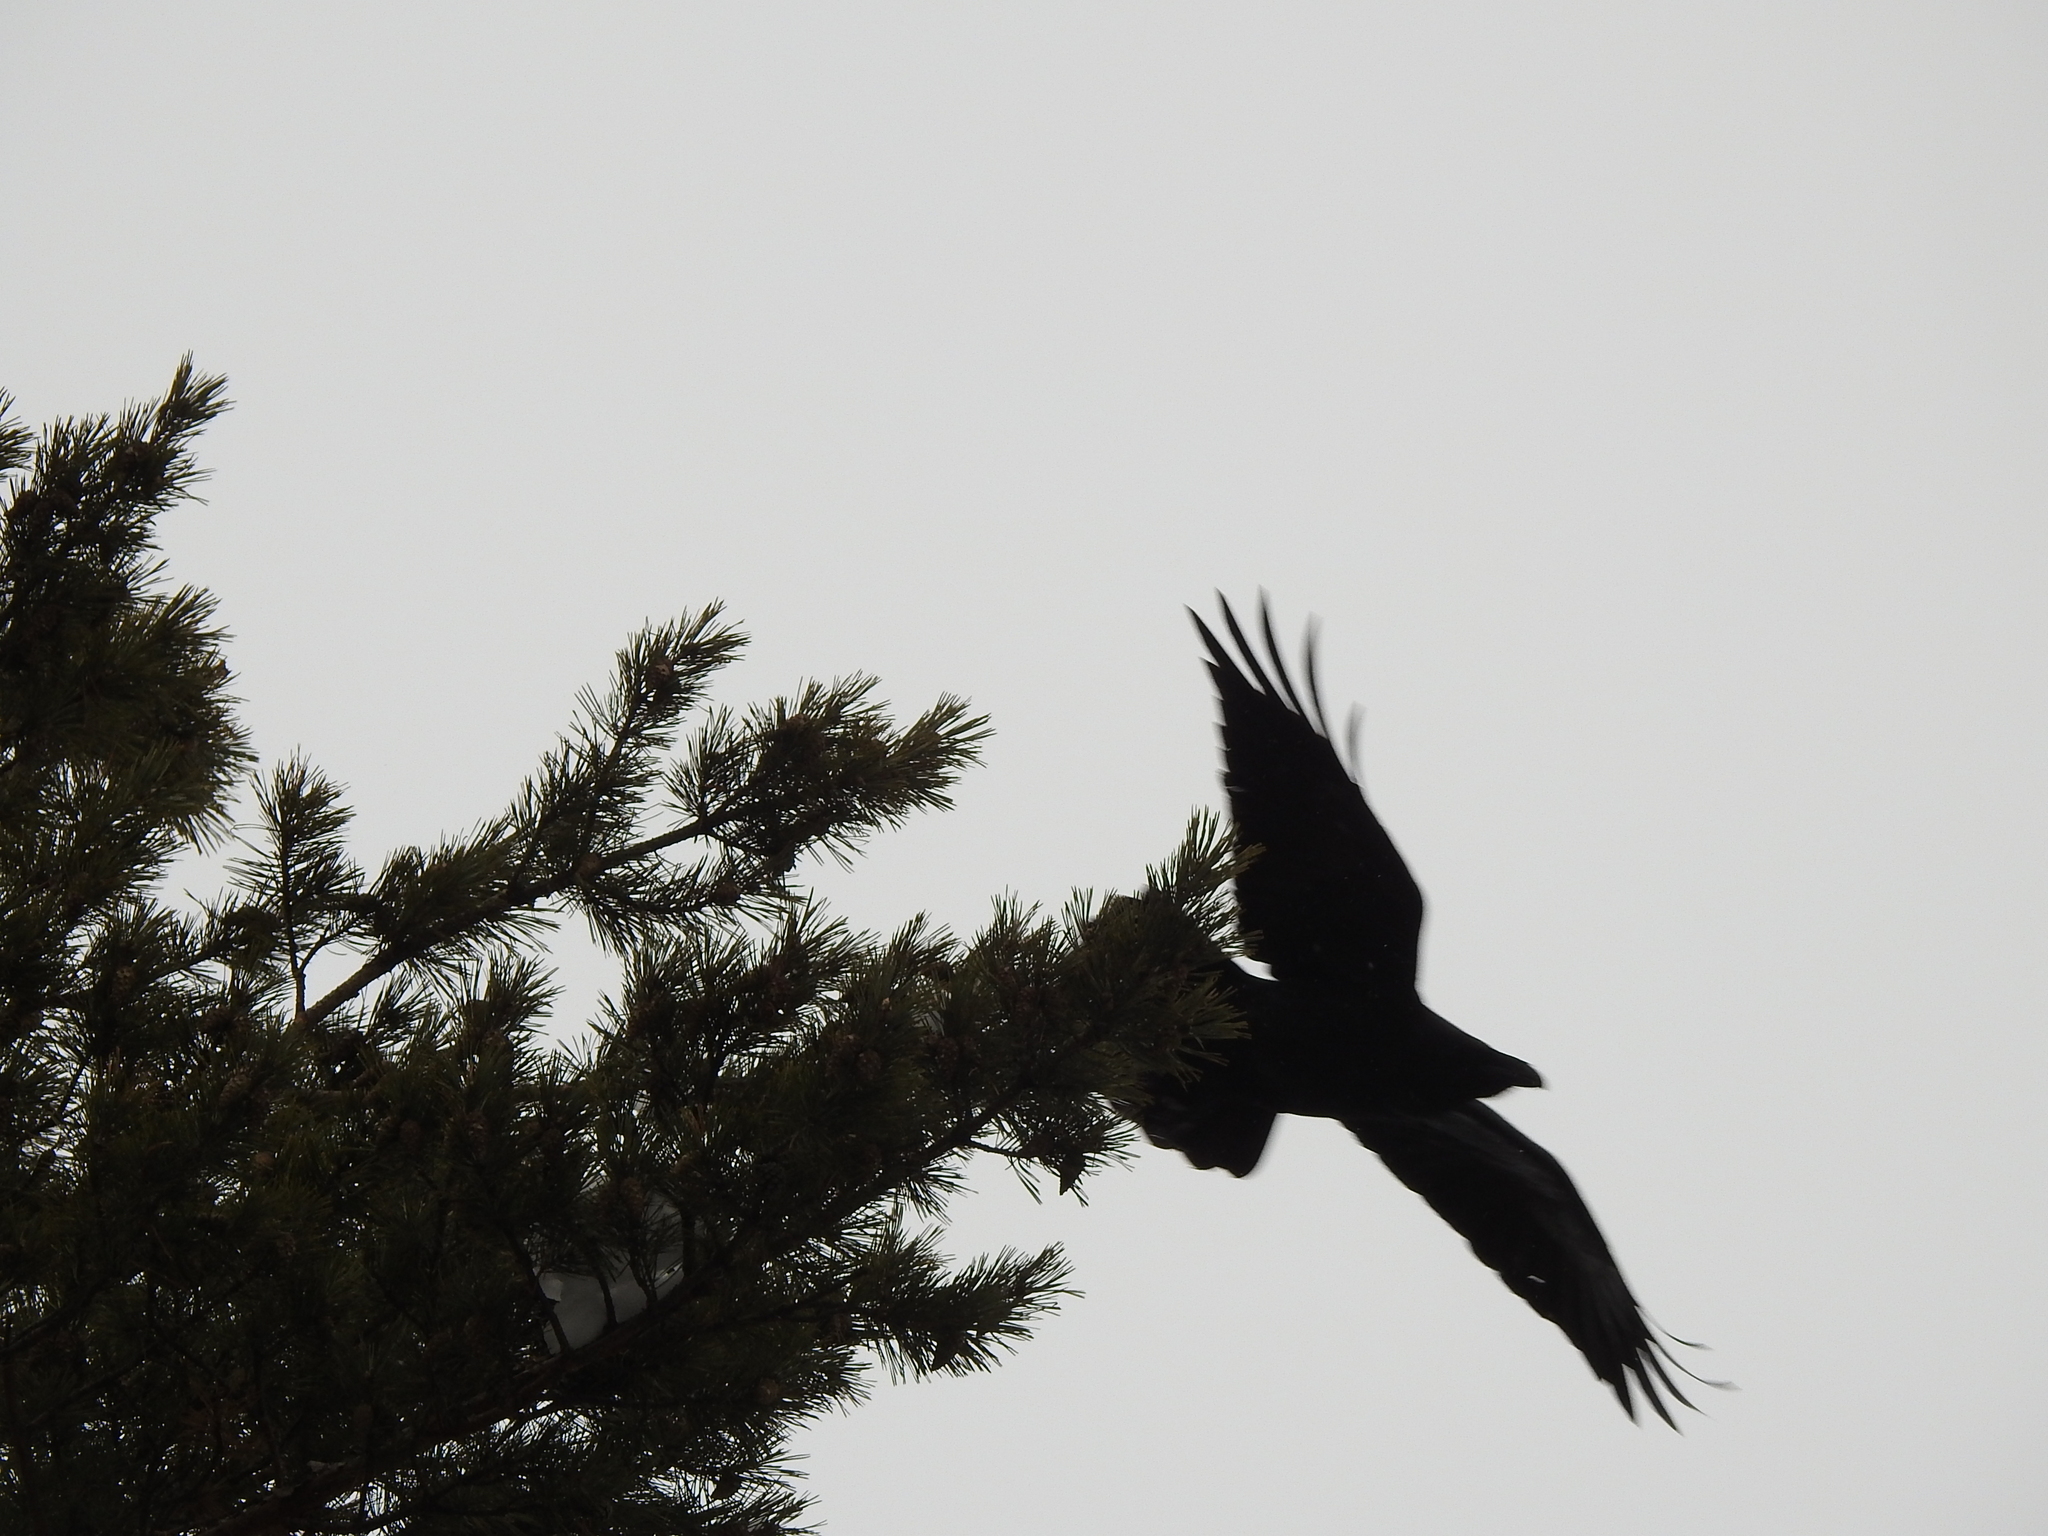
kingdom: Animalia
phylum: Chordata
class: Aves
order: Passeriformes
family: Corvidae
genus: Corvus
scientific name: Corvus corax
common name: Common raven
